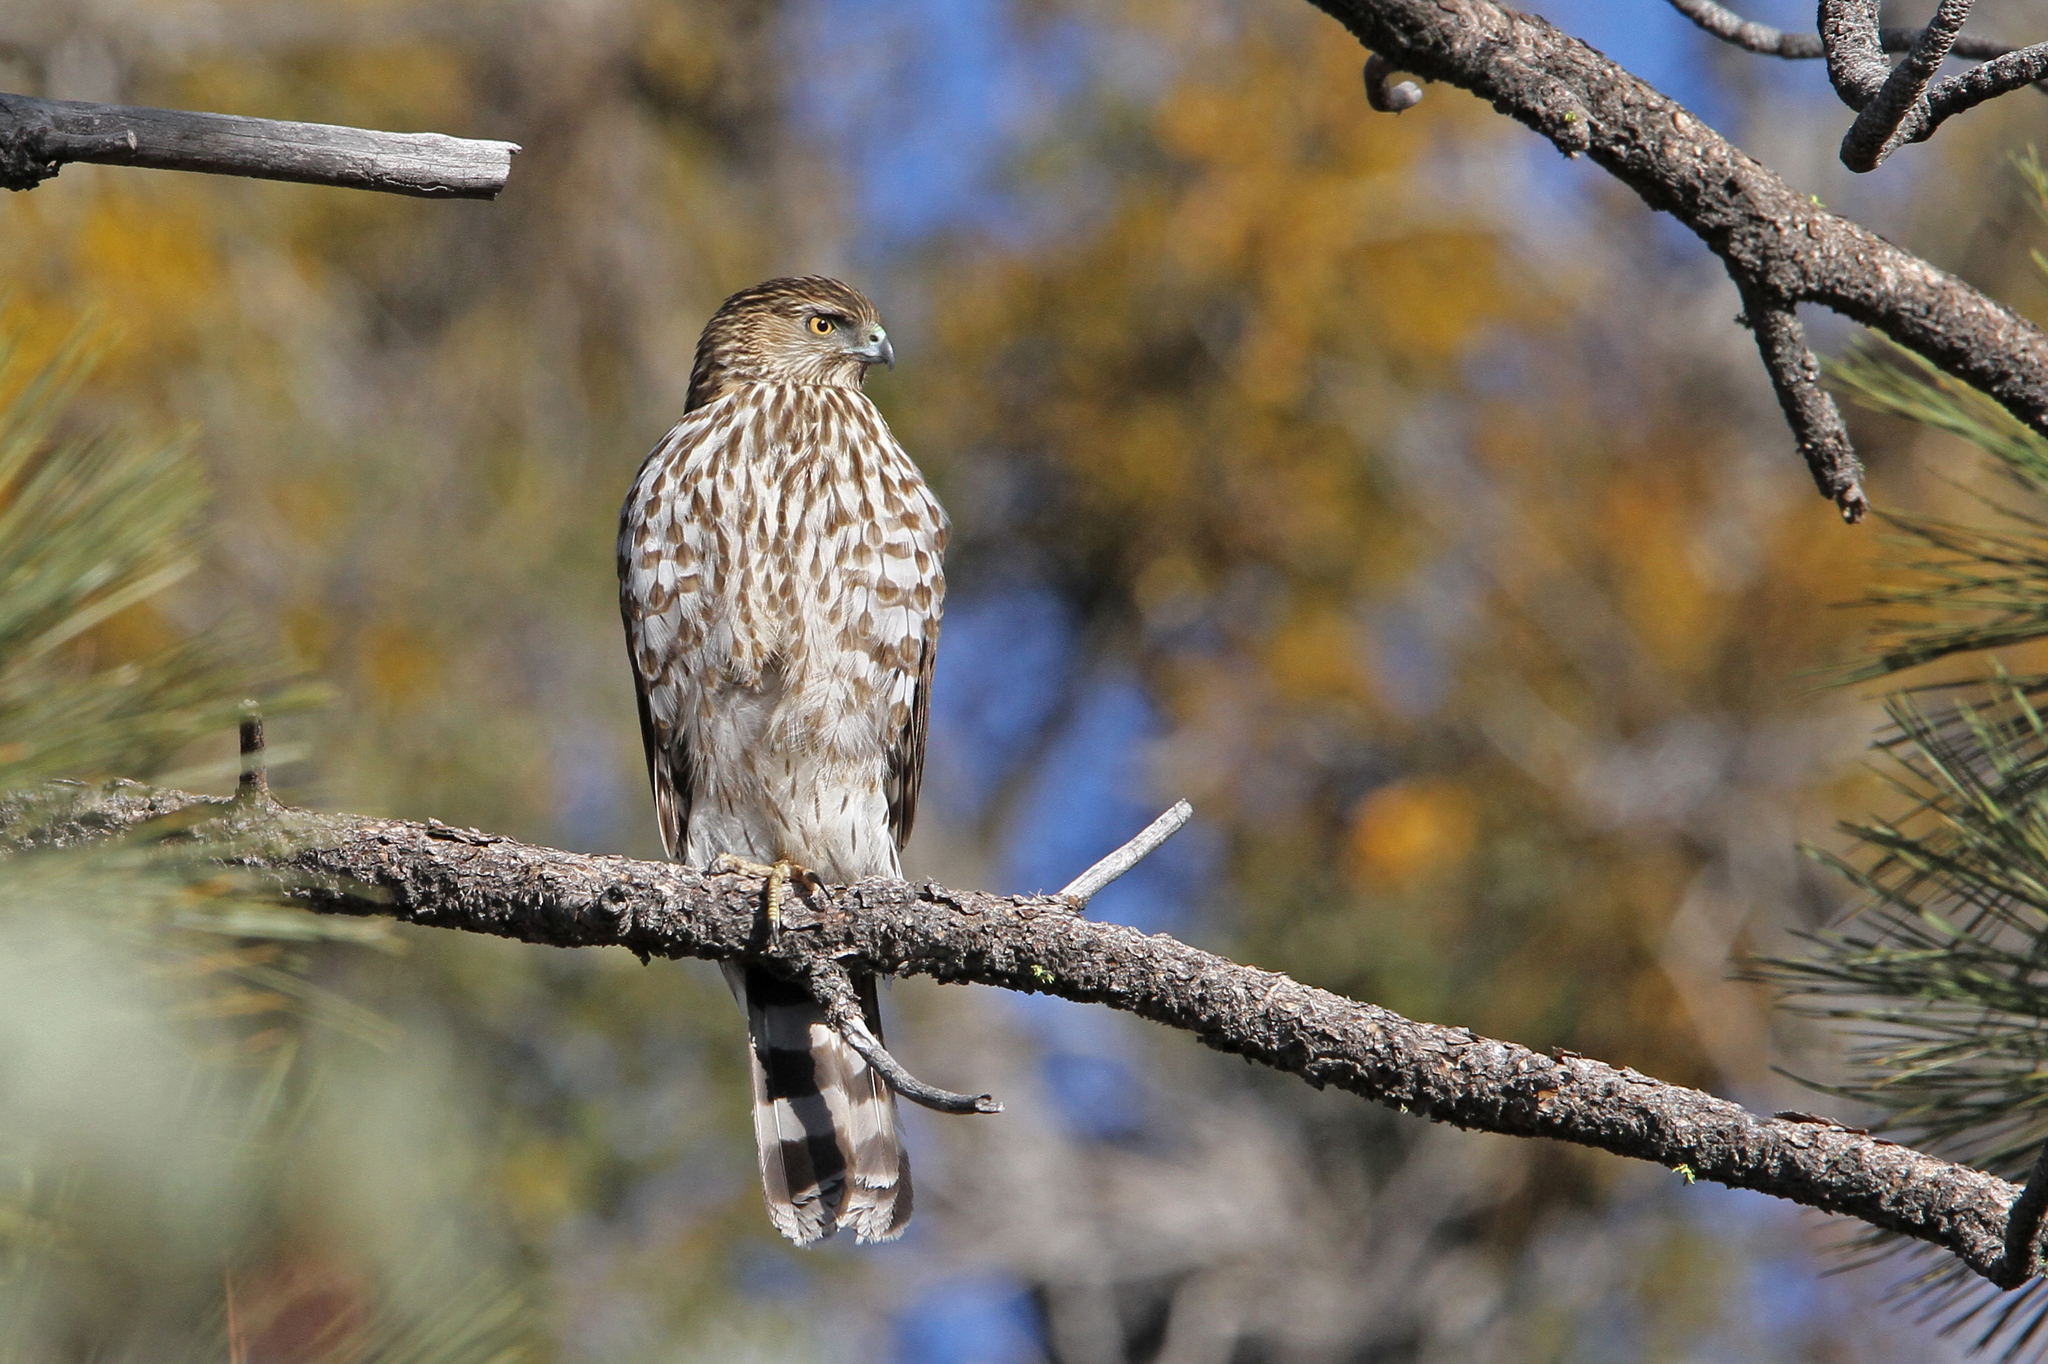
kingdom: Animalia
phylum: Chordata
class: Aves
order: Accipitriformes
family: Accipitridae
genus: Accipiter
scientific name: Accipiter cooperii
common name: Cooper's hawk
